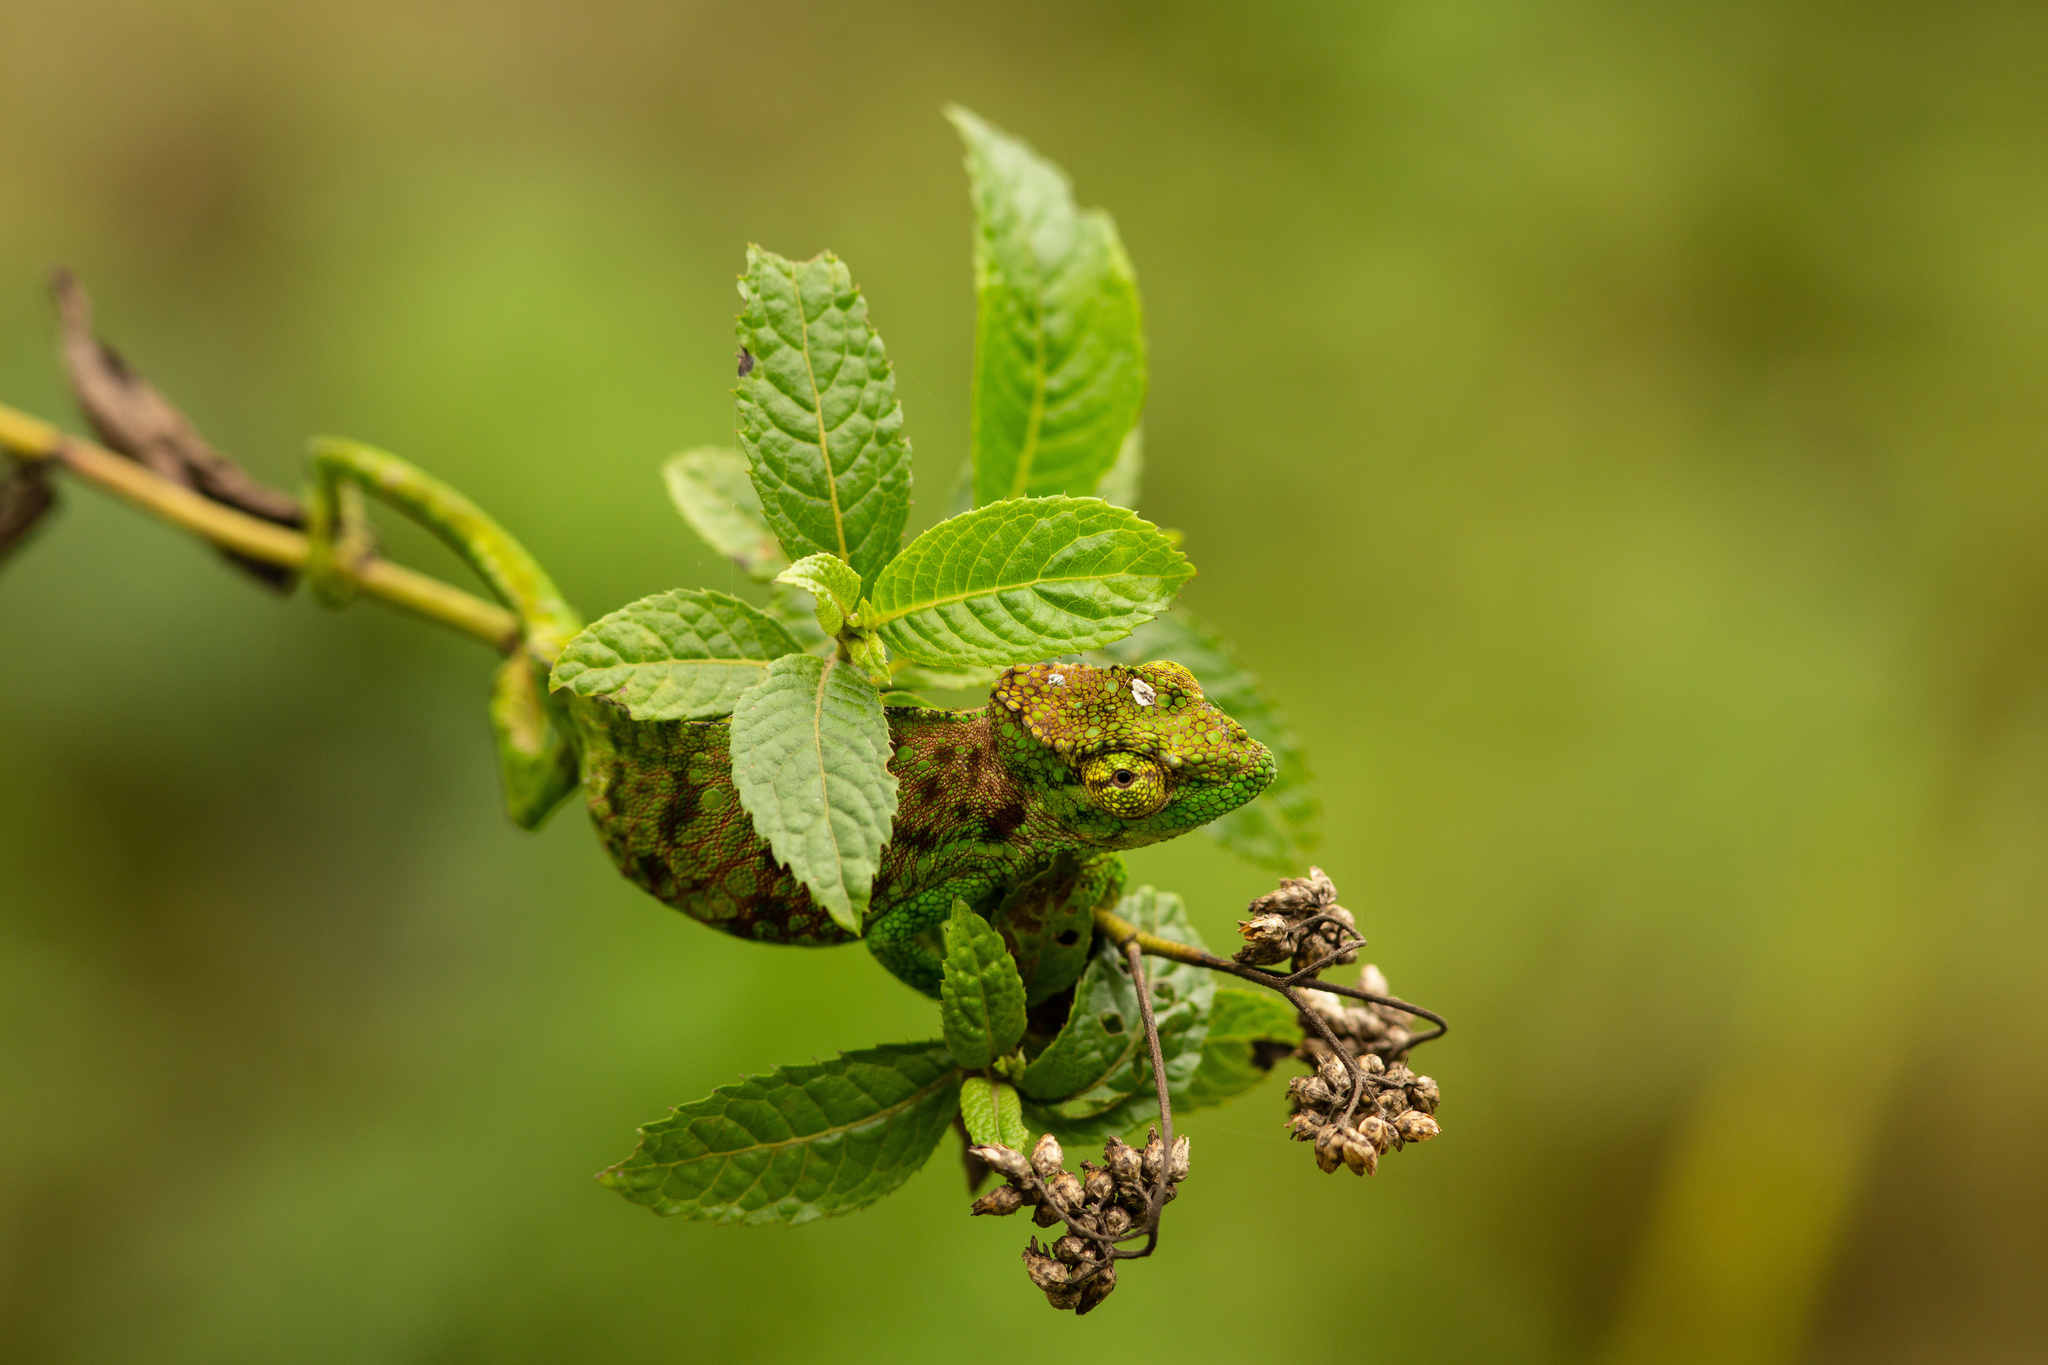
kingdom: Animalia
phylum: Chordata
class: Squamata
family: Chamaeleonidae
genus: Trioceros
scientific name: Trioceros montium
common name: Cameroon sailfin chameleon
